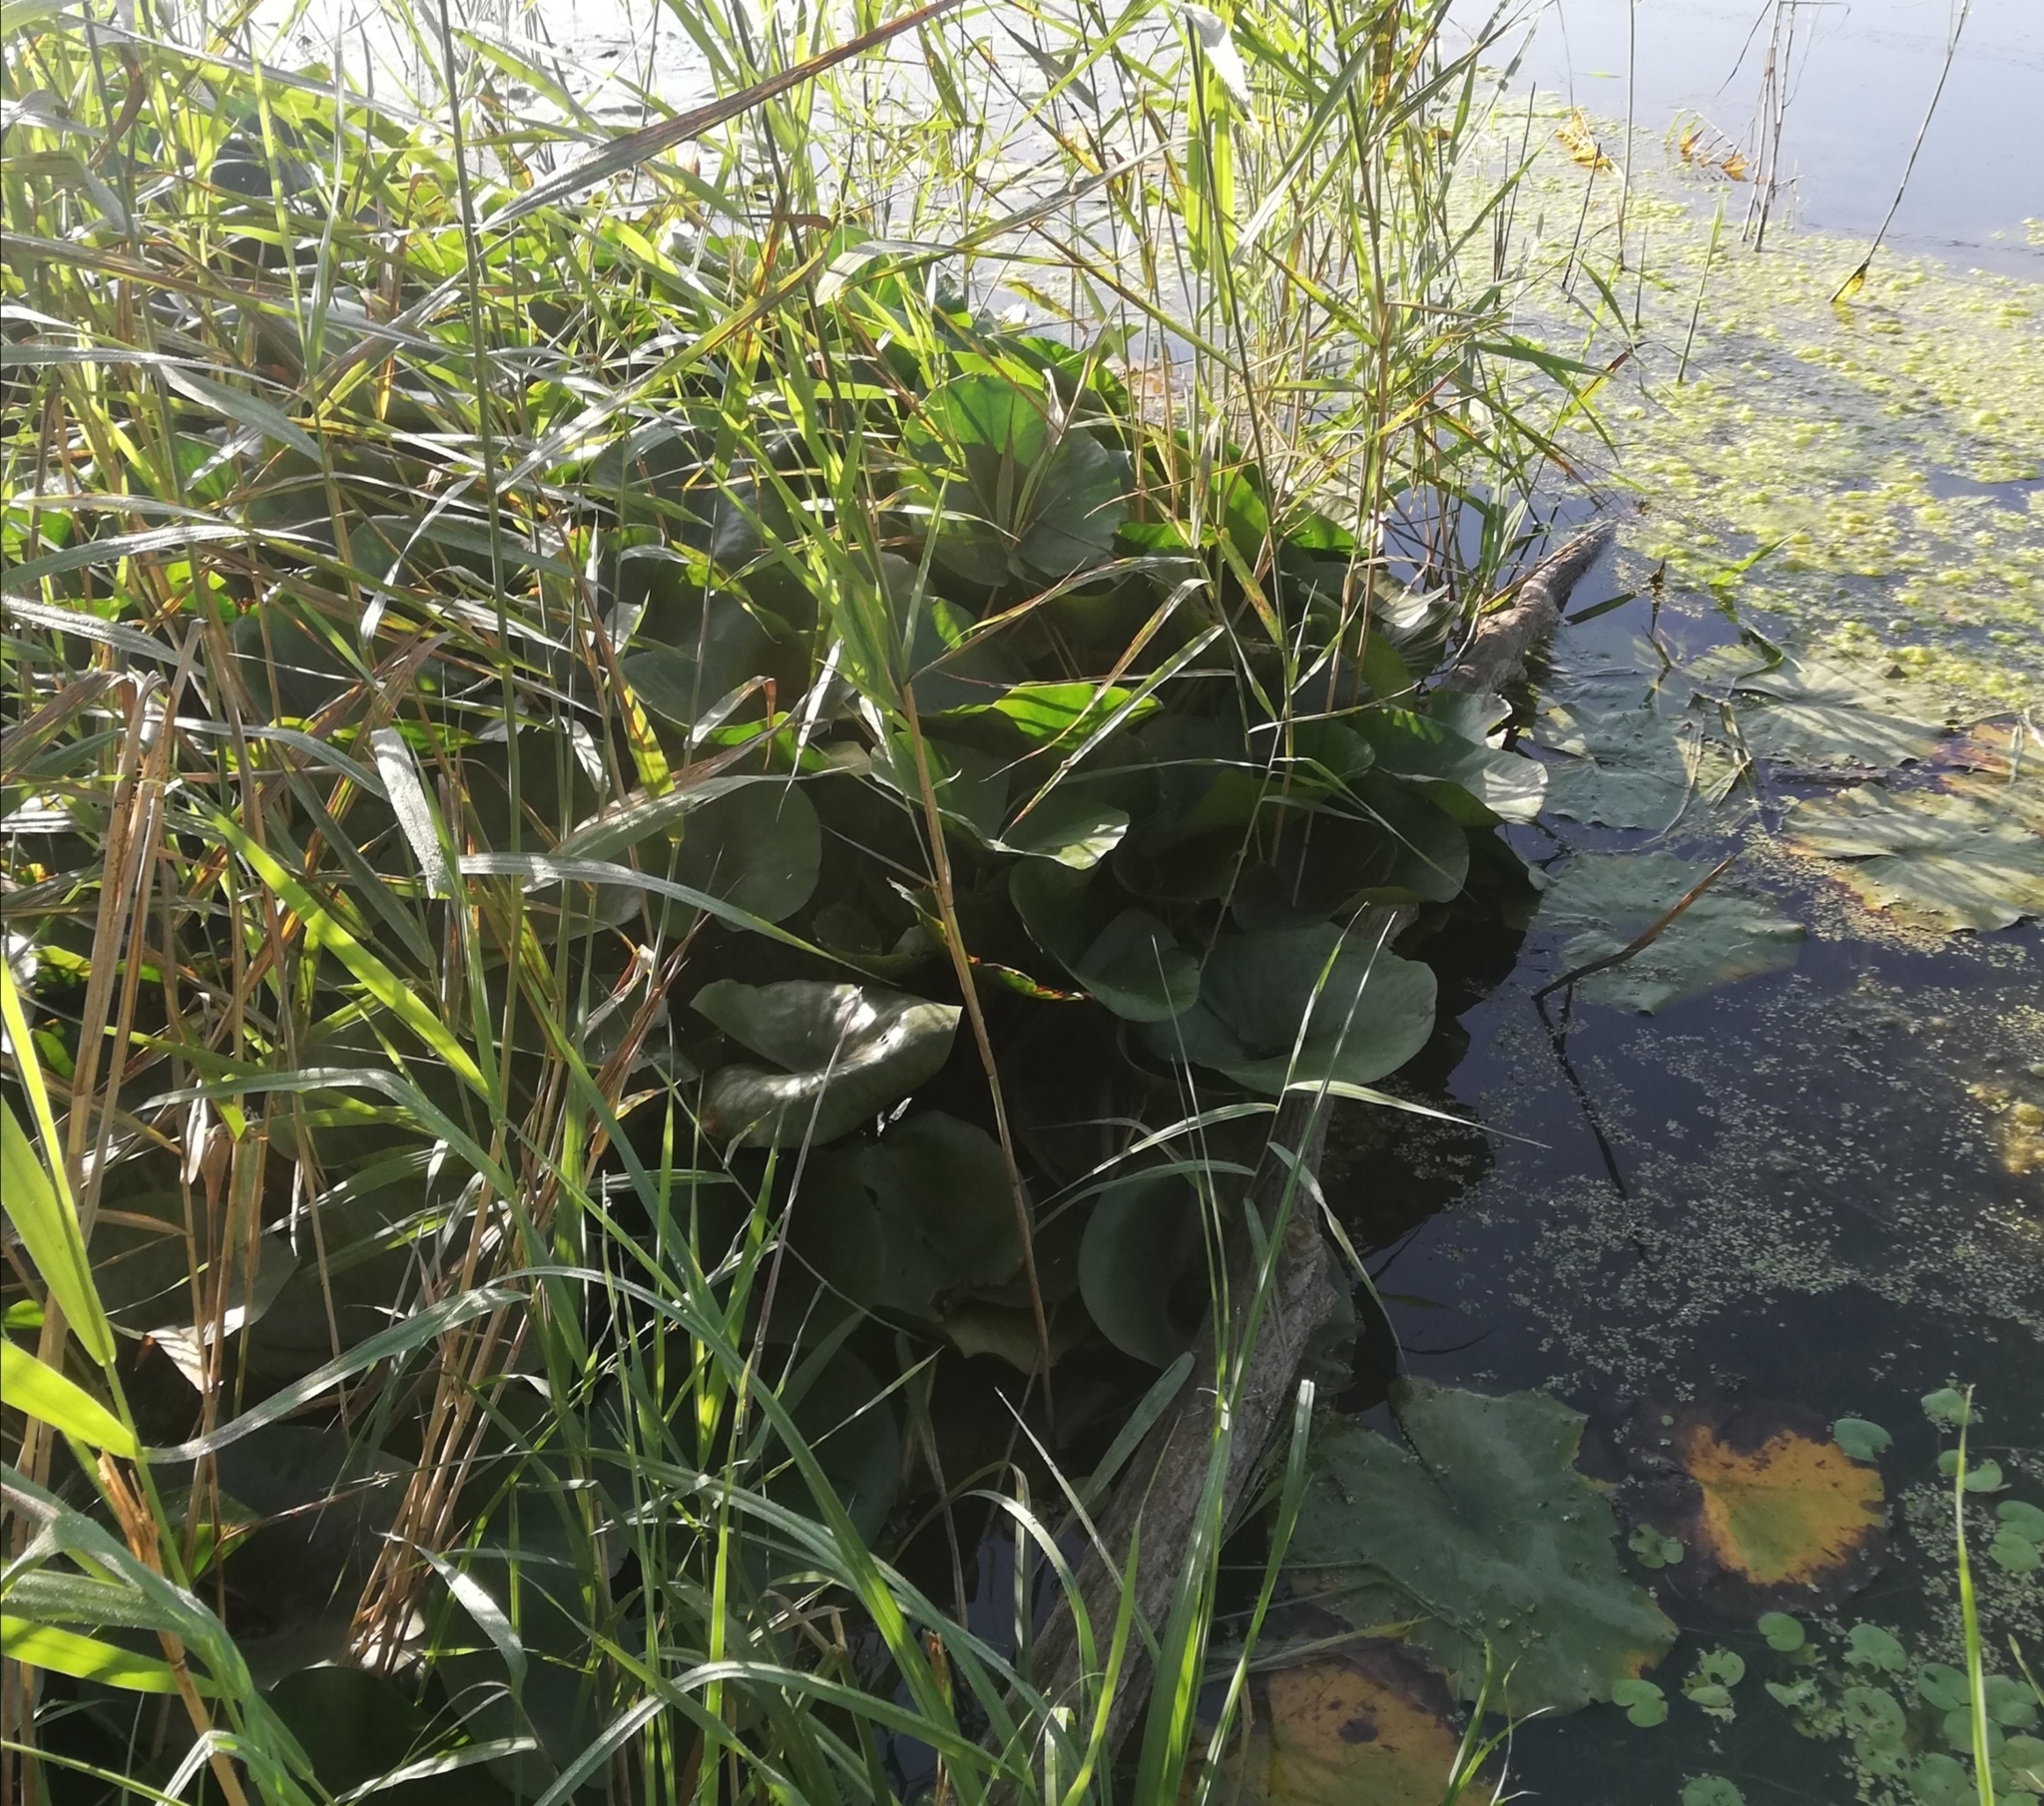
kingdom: Plantae
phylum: Tracheophyta
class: Magnoliopsida
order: Nymphaeales
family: Nymphaeaceae
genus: Nymphaea
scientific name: Nymphaea marliacea
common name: Water-lily
